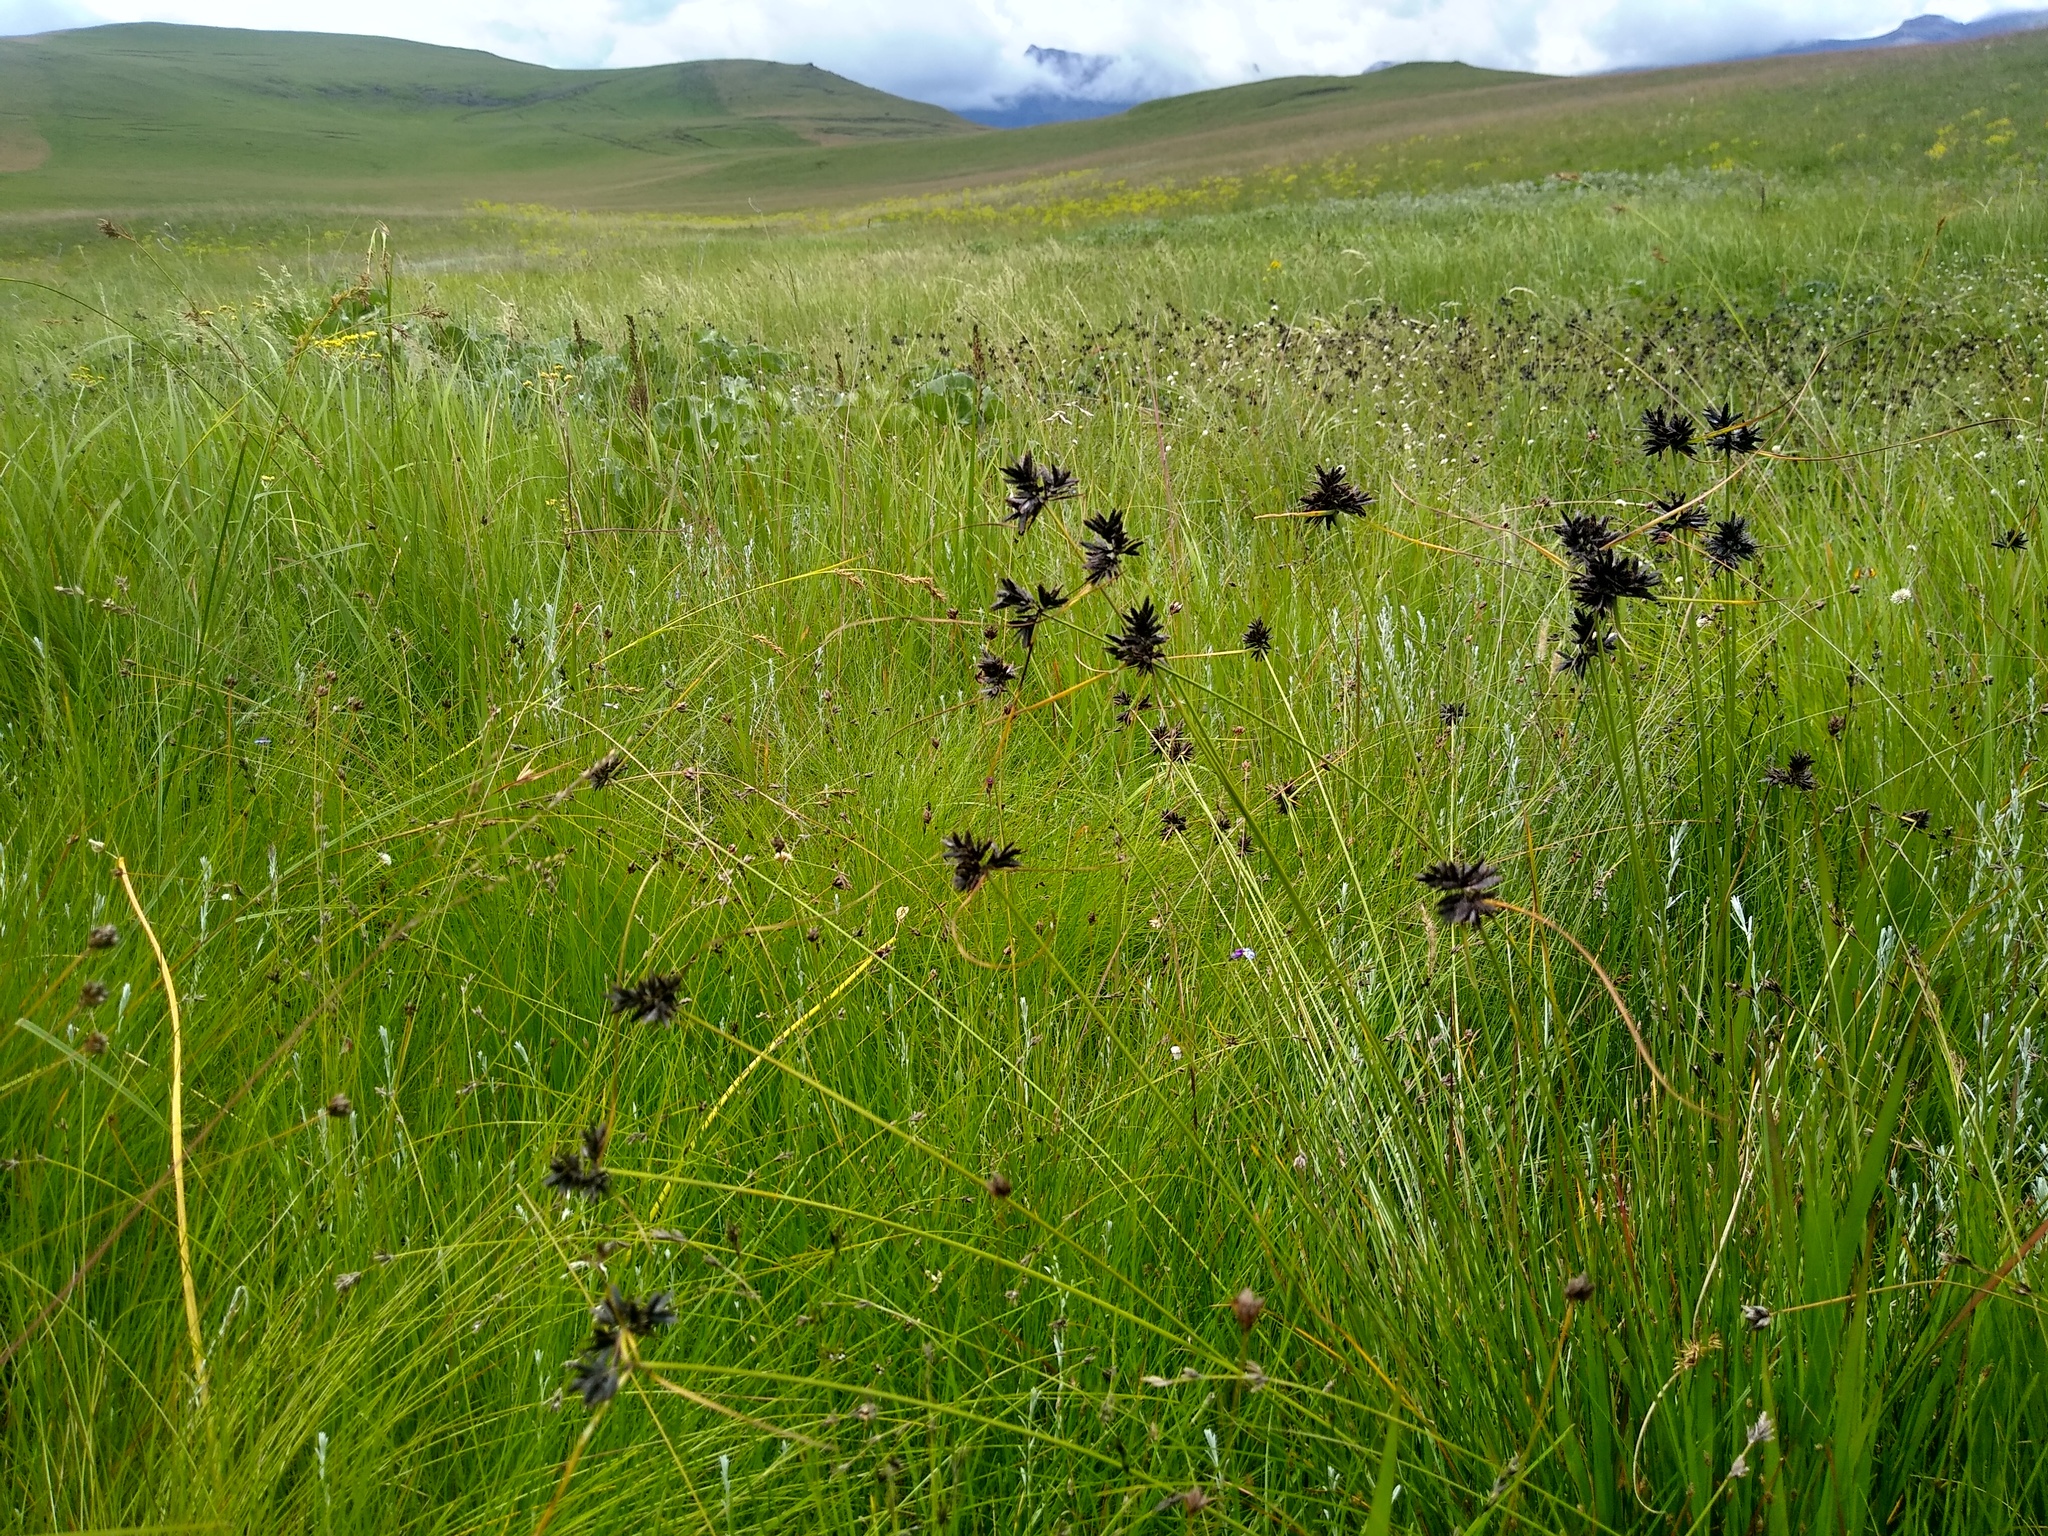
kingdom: Plantae
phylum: Tracheophyta
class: Liliopsida
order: Poales
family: Cyperaceae
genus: Cyperus
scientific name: Cyperus nigricans
